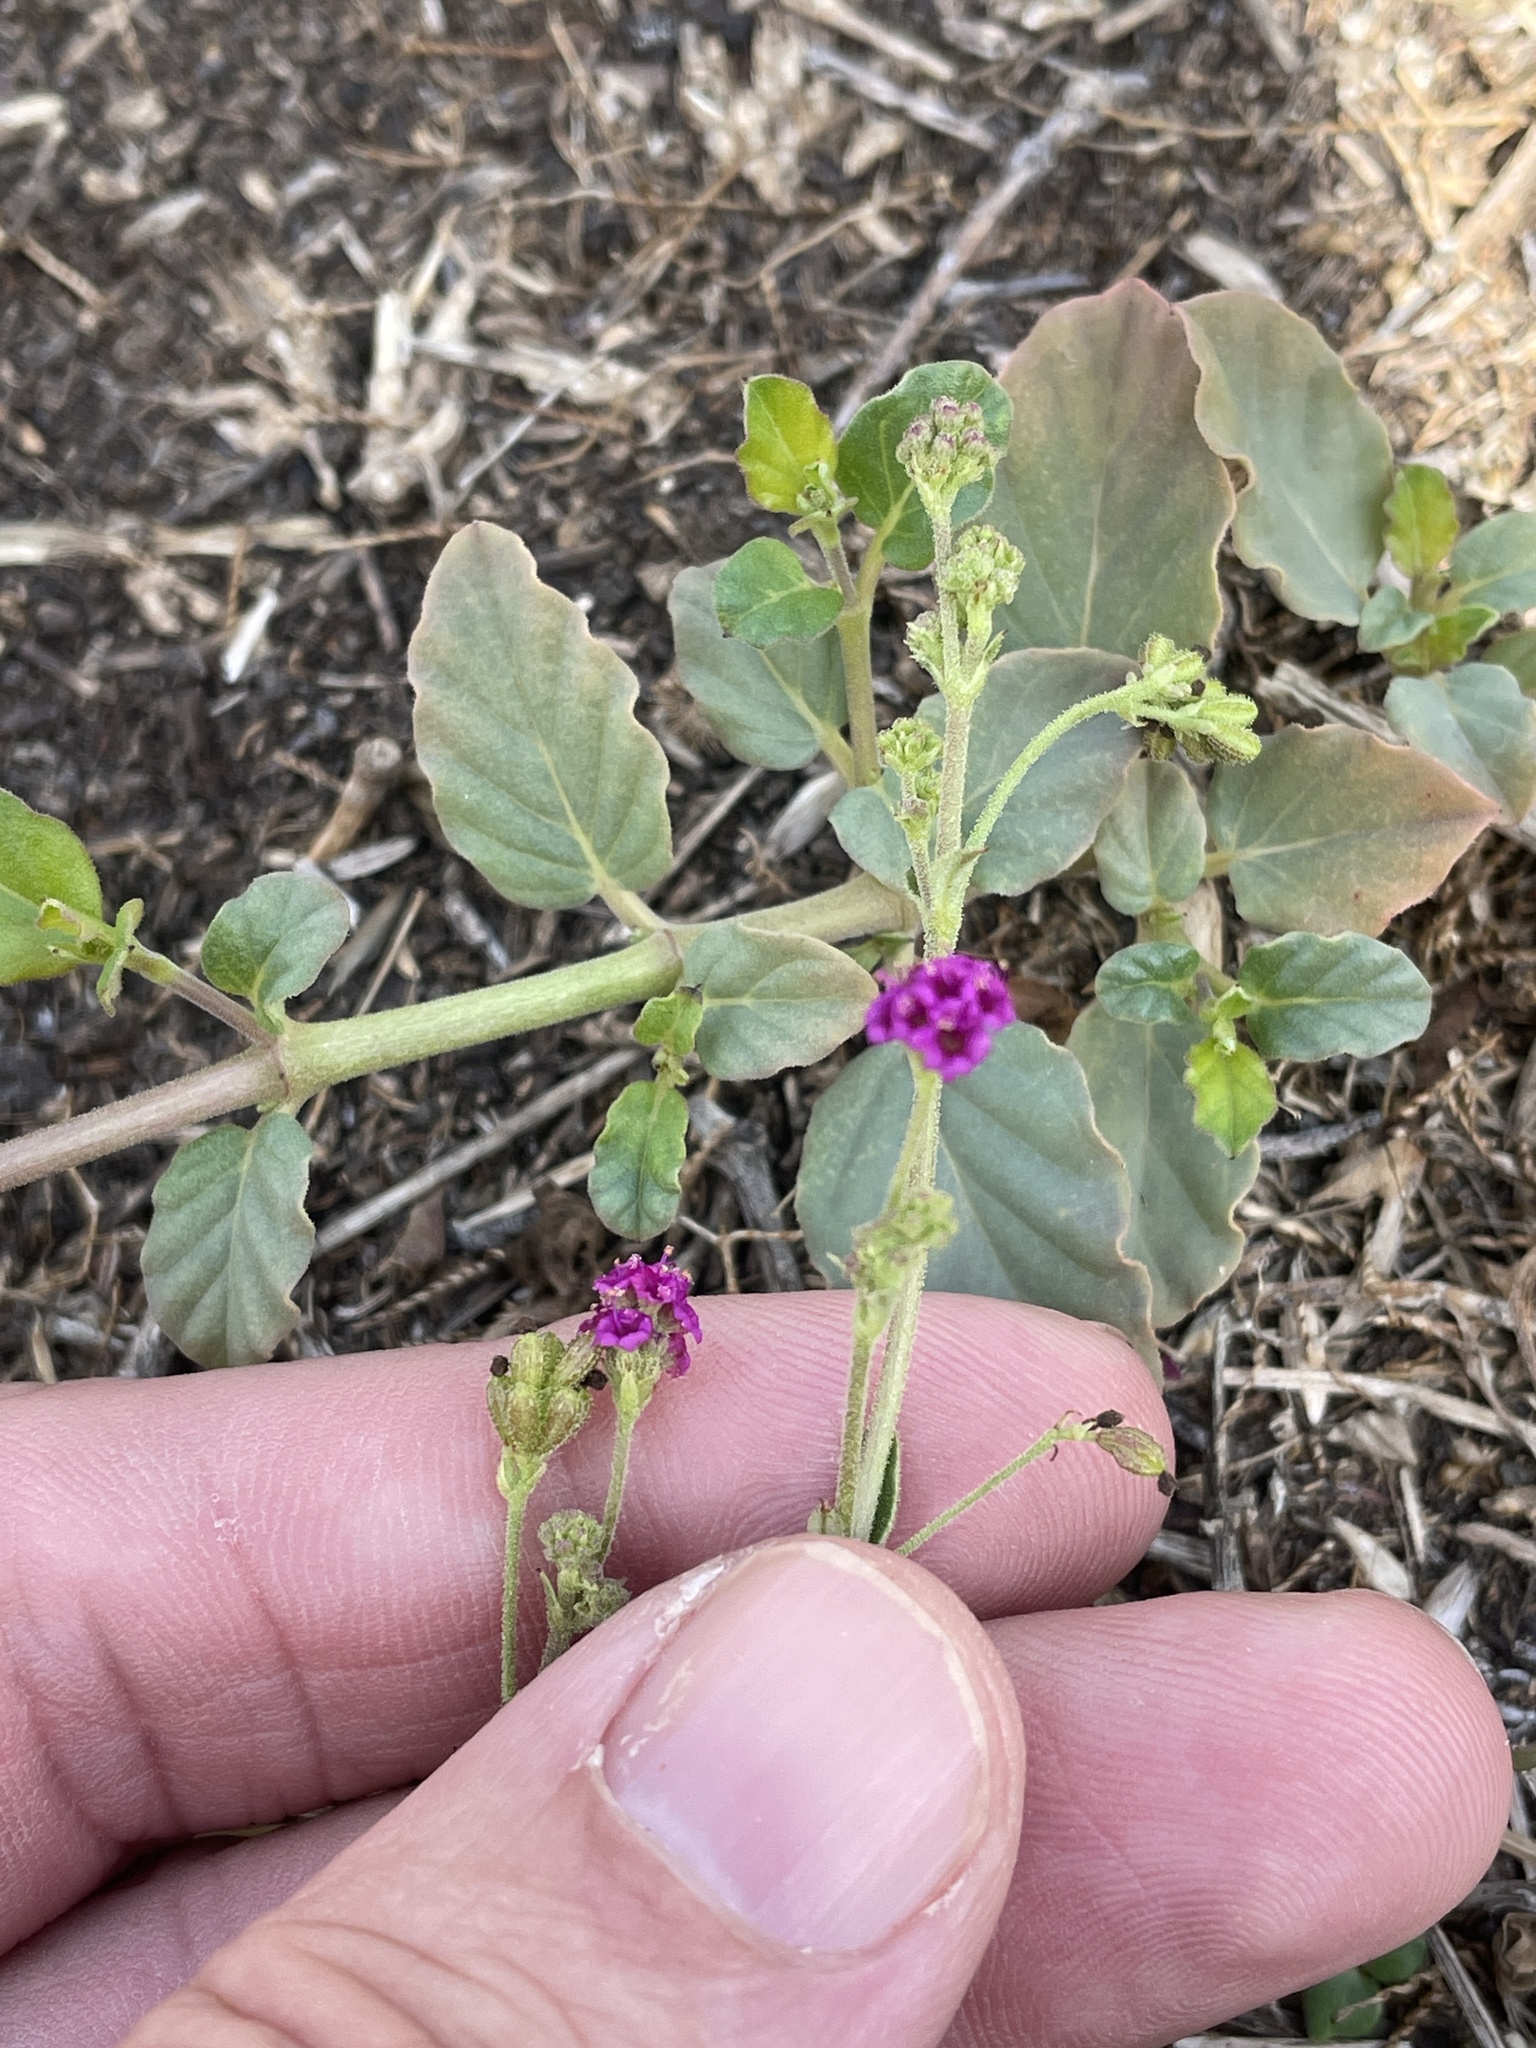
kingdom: Plantae
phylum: Tracheophyta
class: Magnoliopsida
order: Caryophyllales
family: Nyctaginaceae
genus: Boerhavia
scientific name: Boerhavia coccinea
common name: Scarlet spiderling
